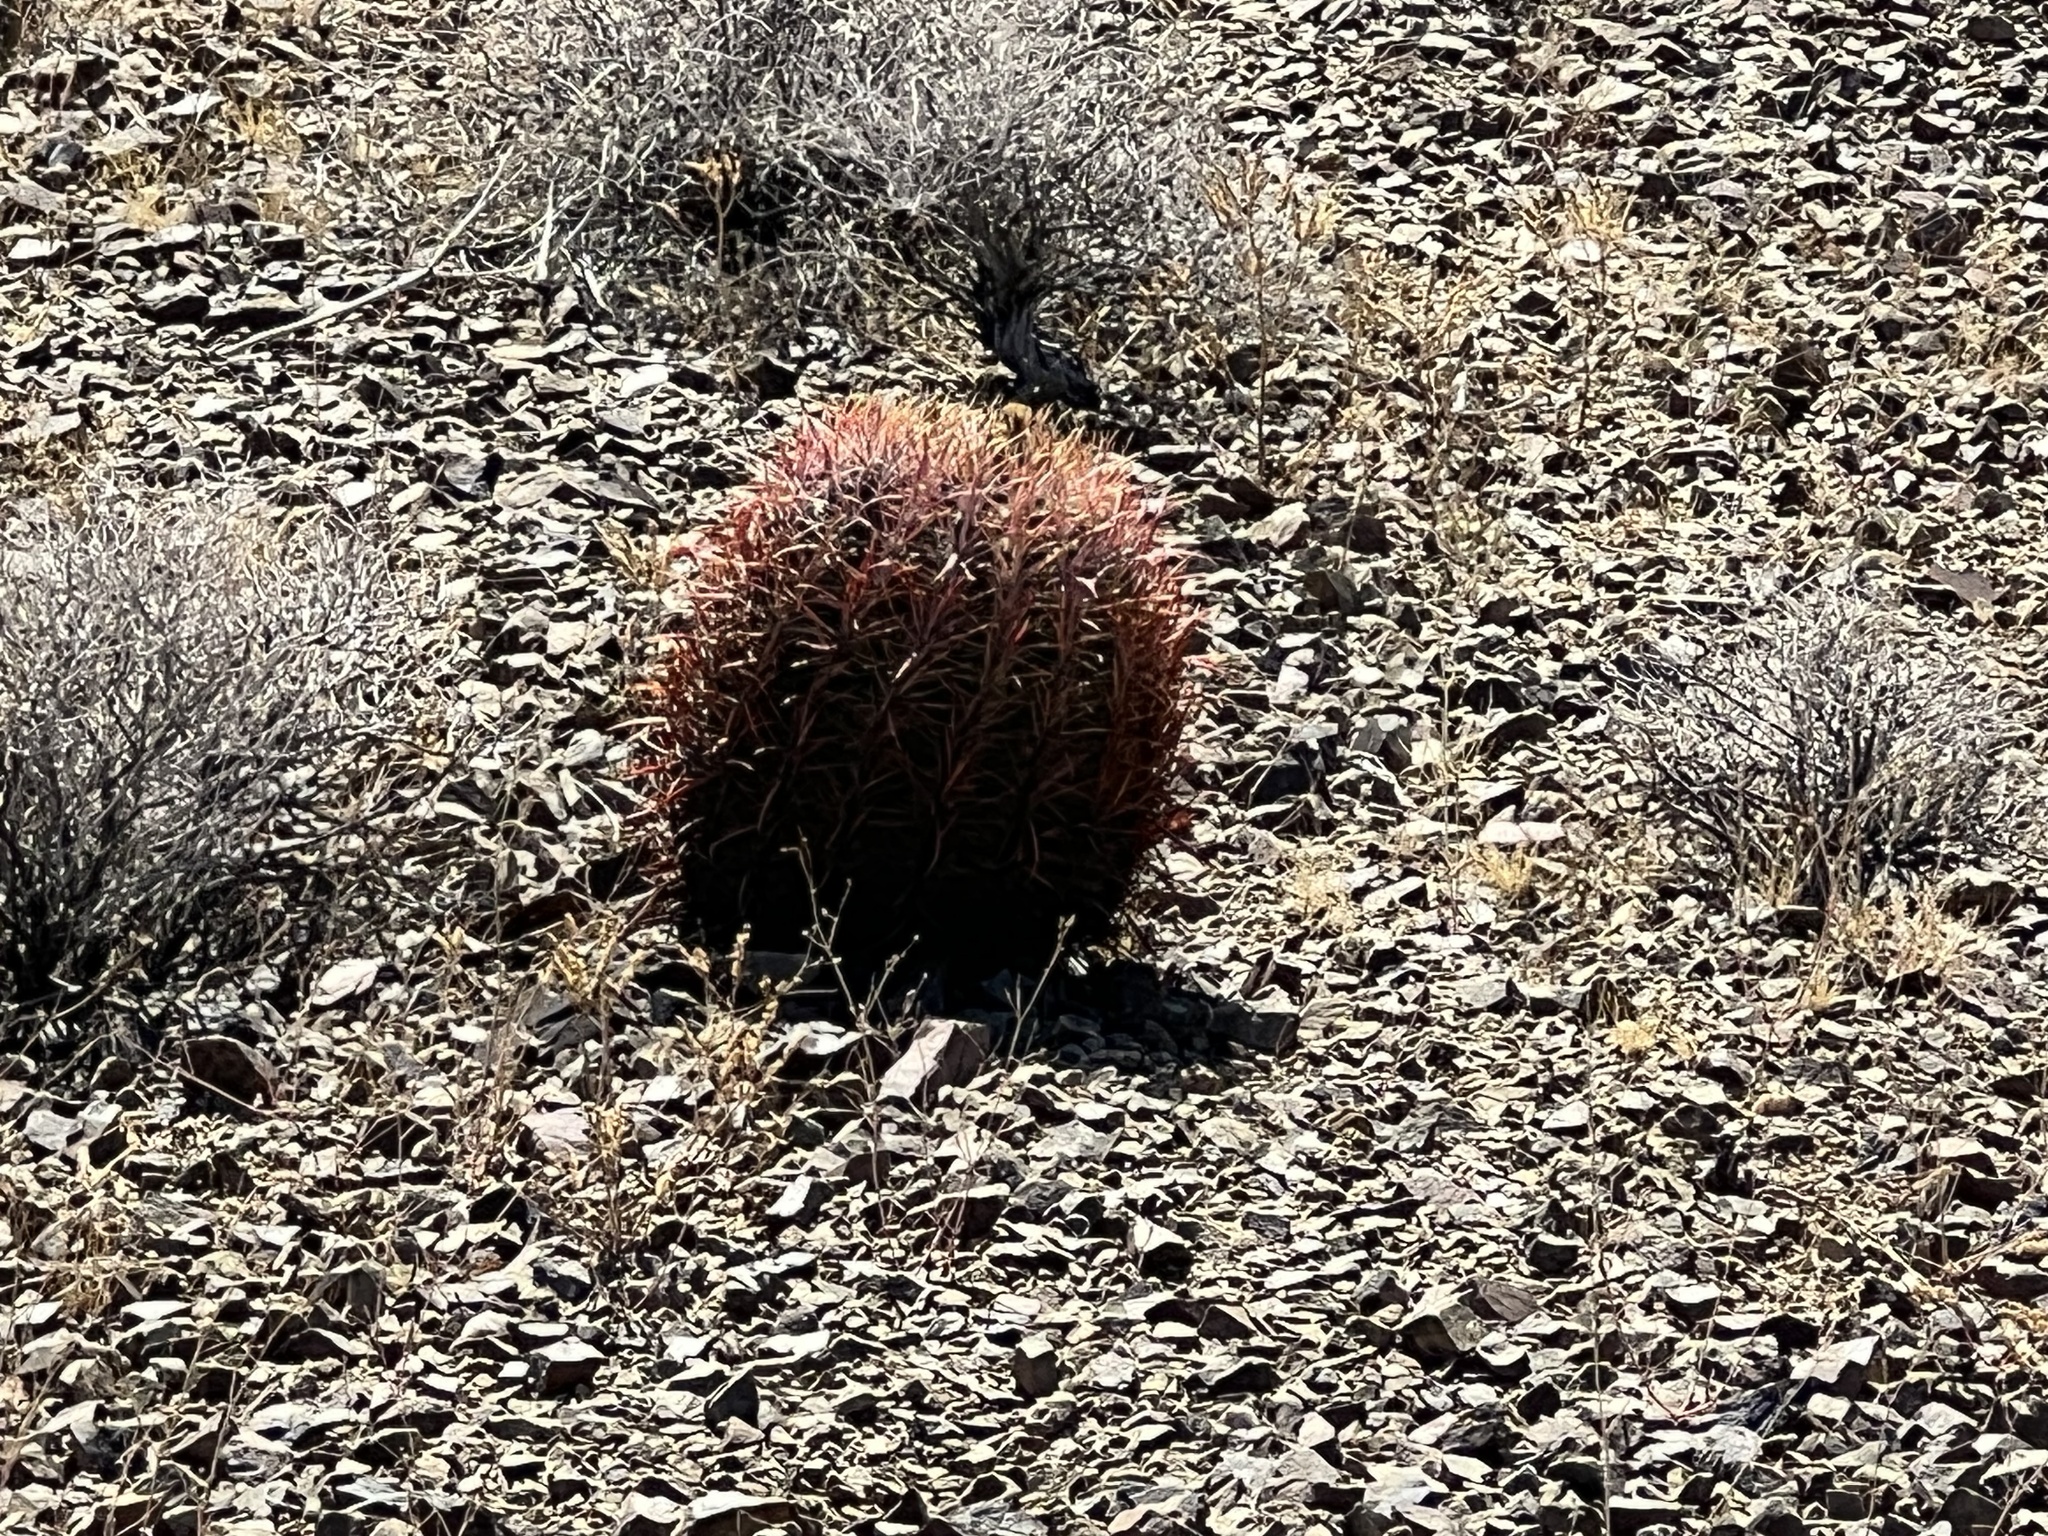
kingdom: Plantae
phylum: Tracheophyta
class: Magnoliopsida
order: Caryophyllales
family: Cactaceae
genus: Ferocactus
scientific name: Ferocactus cylindraceus
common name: California barrel cactus
